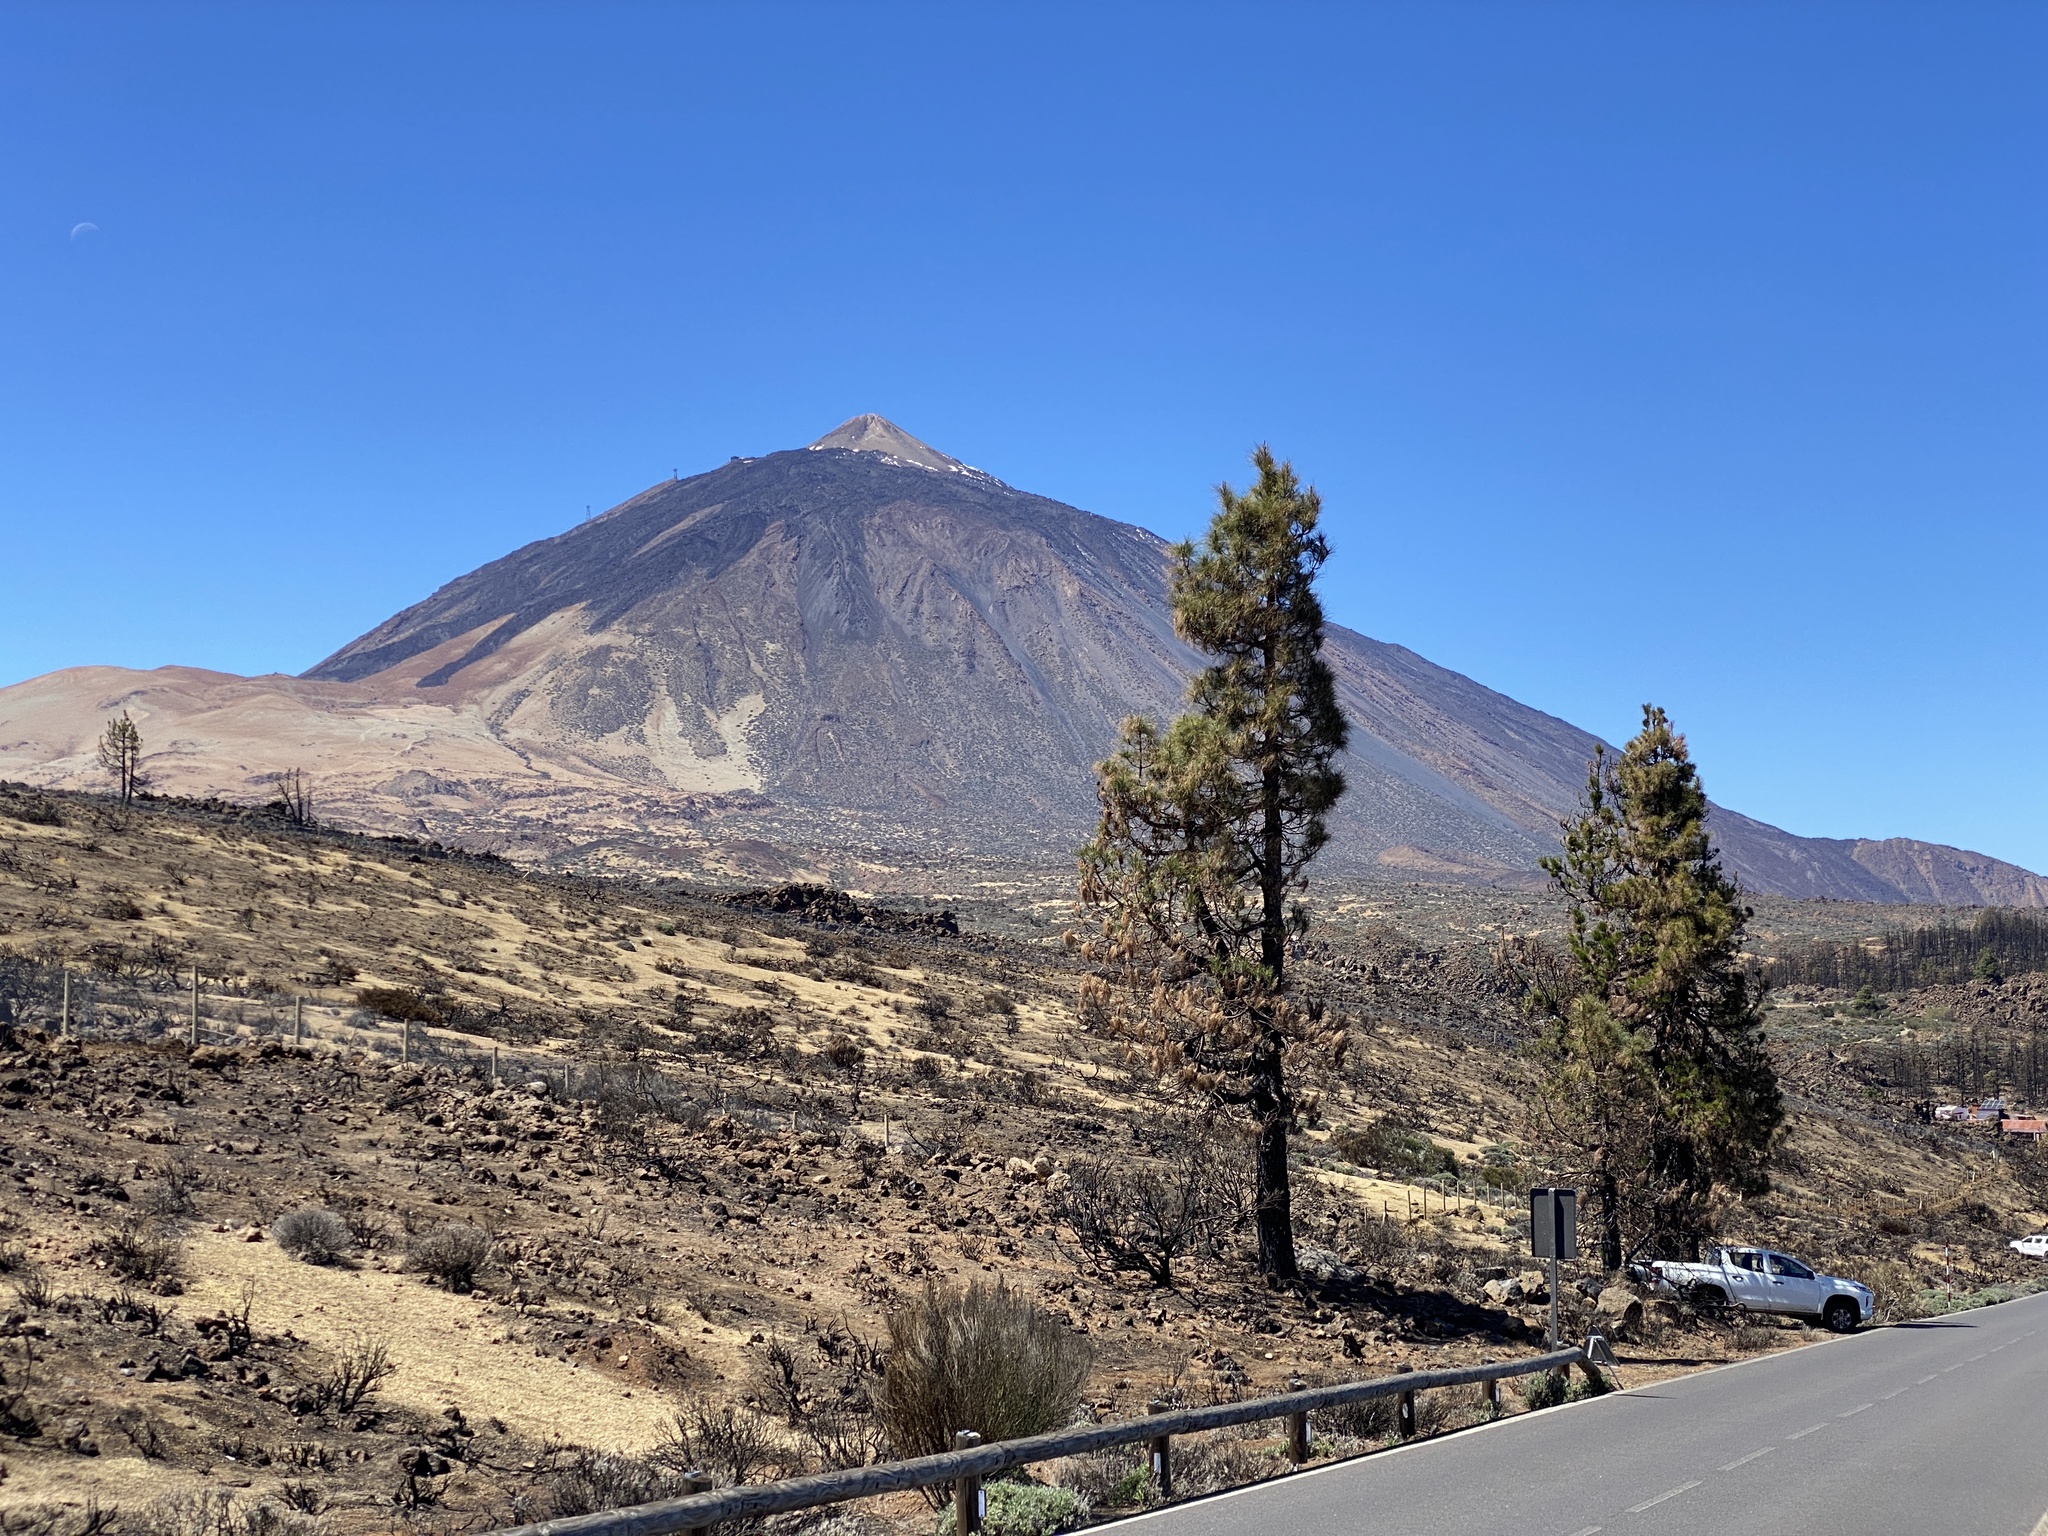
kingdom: Plantae
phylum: Tracheophyta
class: Pinopsida
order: Pinales
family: Pinaceae
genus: Pinus
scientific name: Pinus canariensis
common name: Canary islands pine
